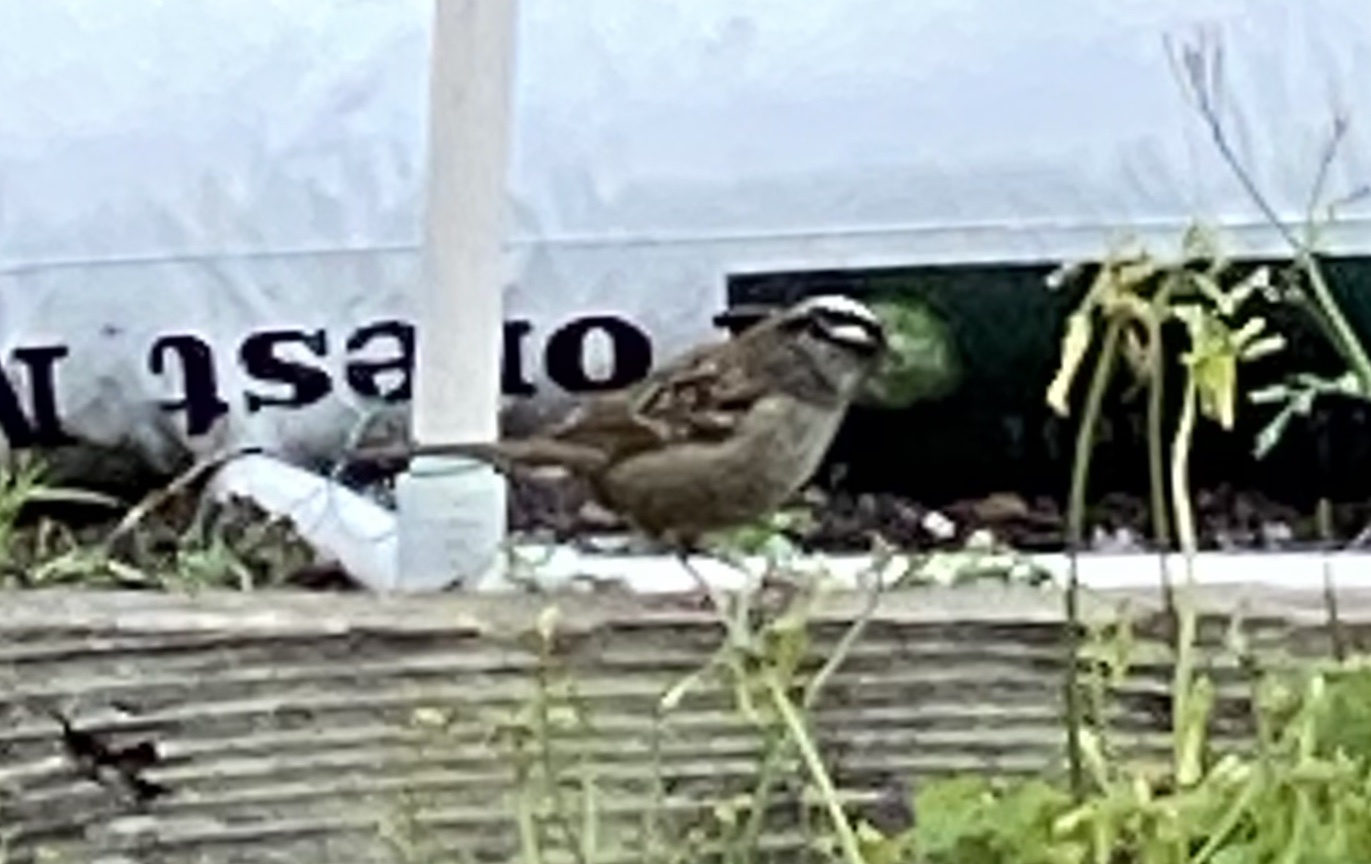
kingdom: Animalia
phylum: Chordata
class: Aves
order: Passeriformes
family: Passerellidae
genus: Zonotrichia
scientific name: Zonotrichia leucophrys
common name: White-crowned sparrow
